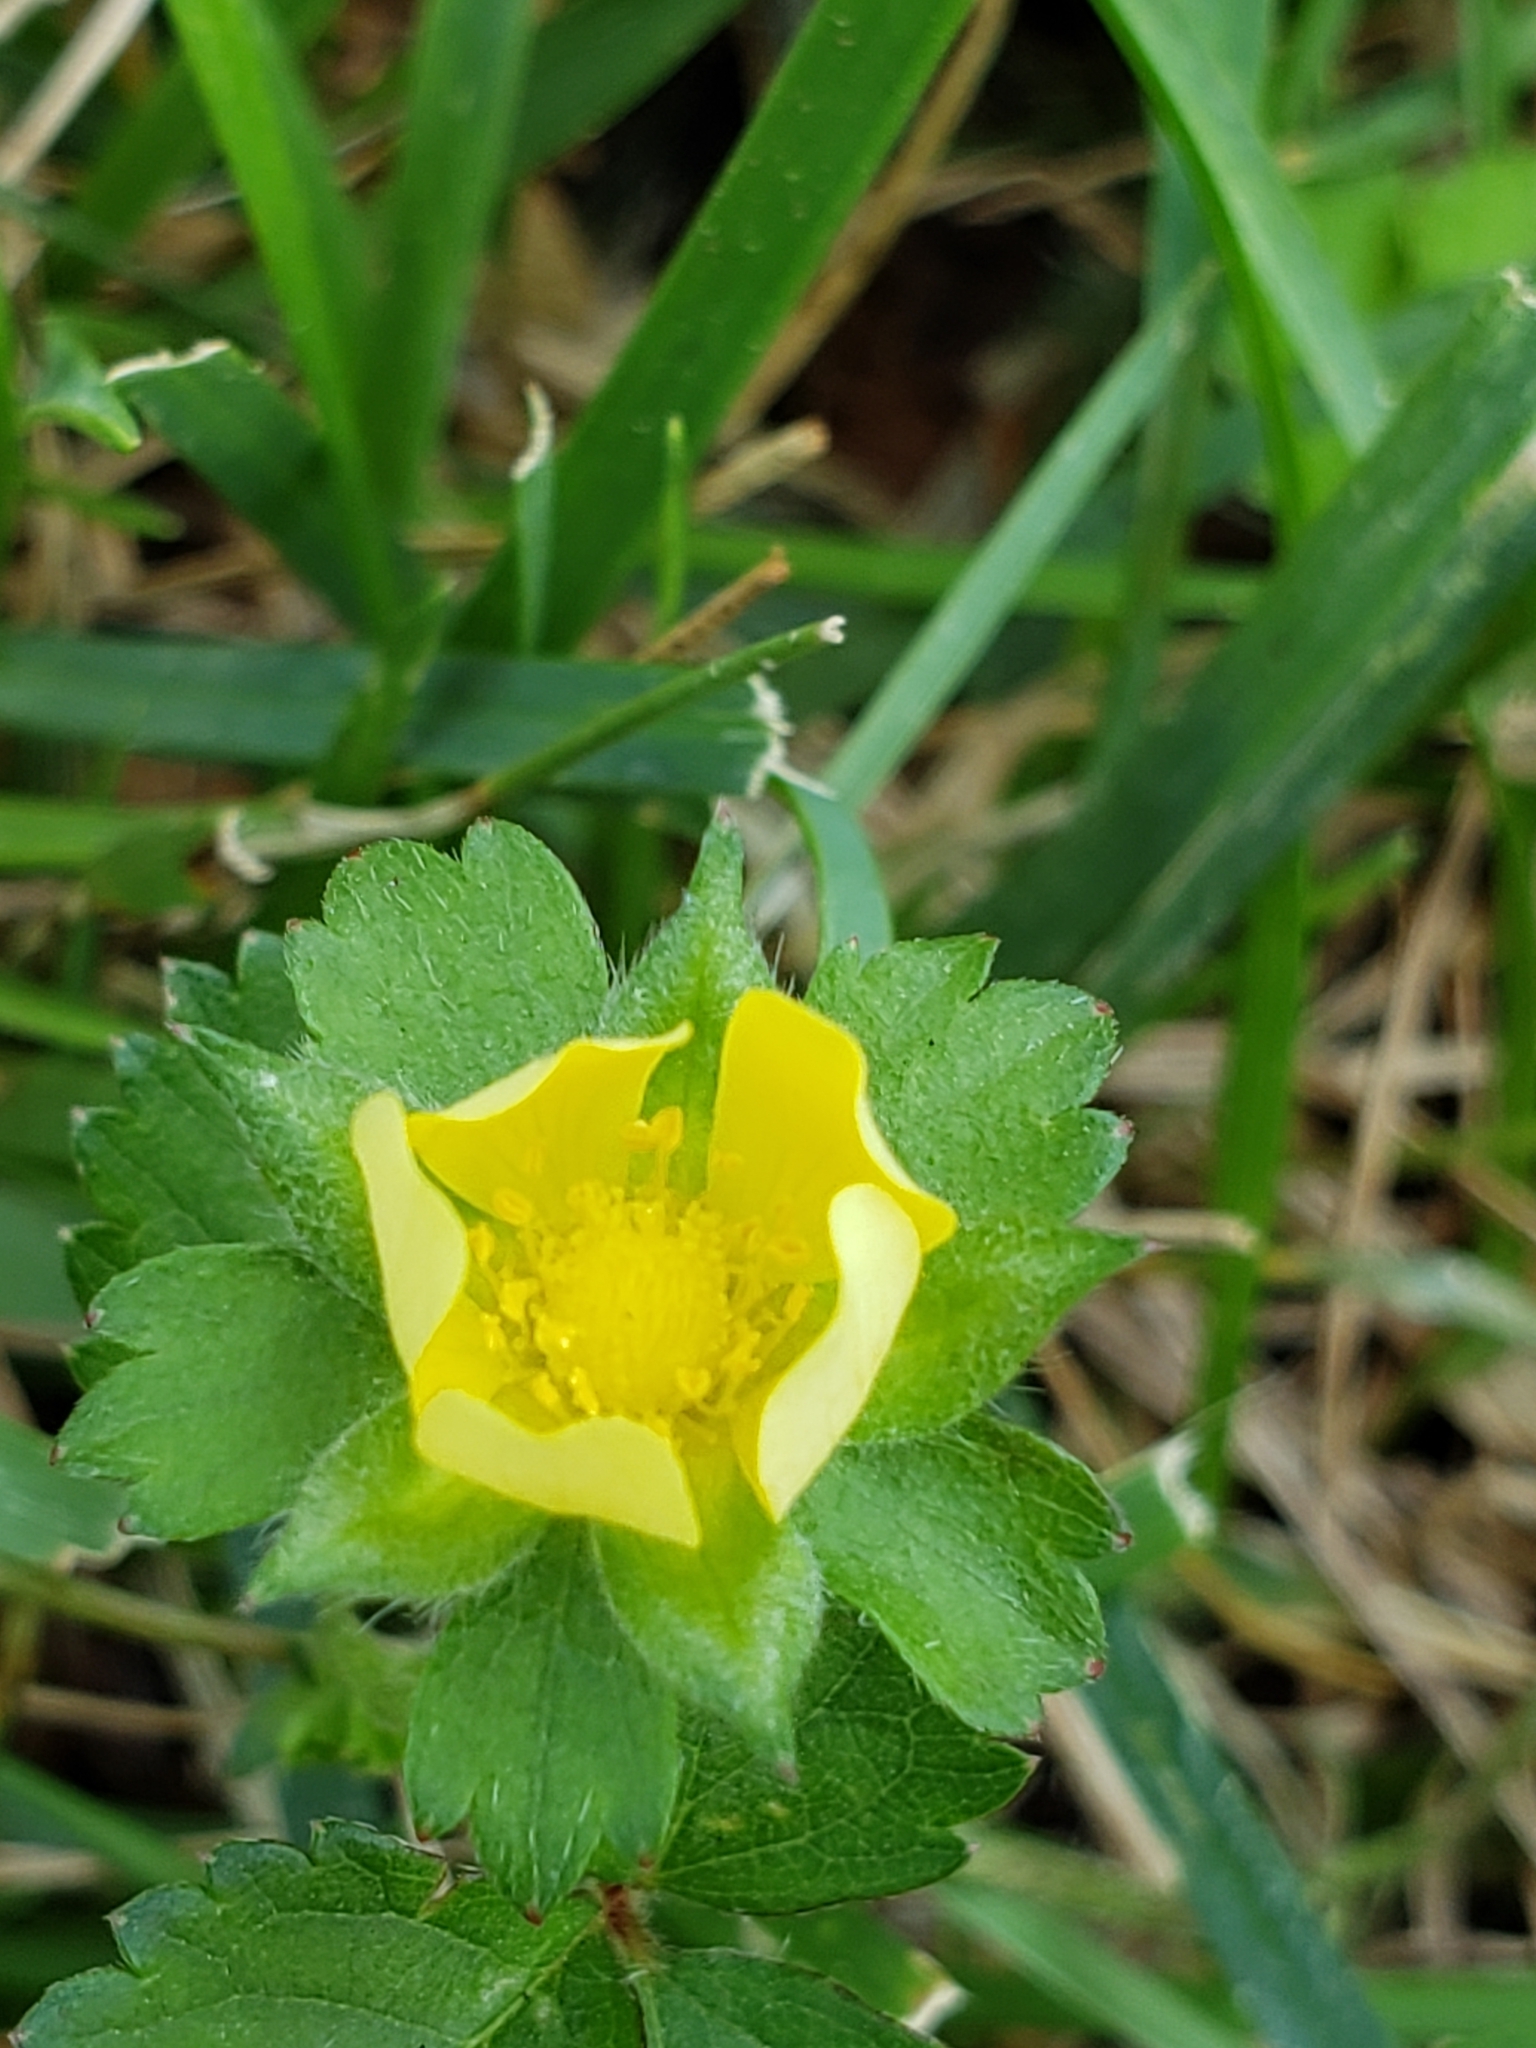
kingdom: Plantae
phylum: Tracheophyta
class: Magnoliopsida
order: Rosales
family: Rosaceae
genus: Potentilla
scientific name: Potentilla indica
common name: Yellow-flowered strawberry
